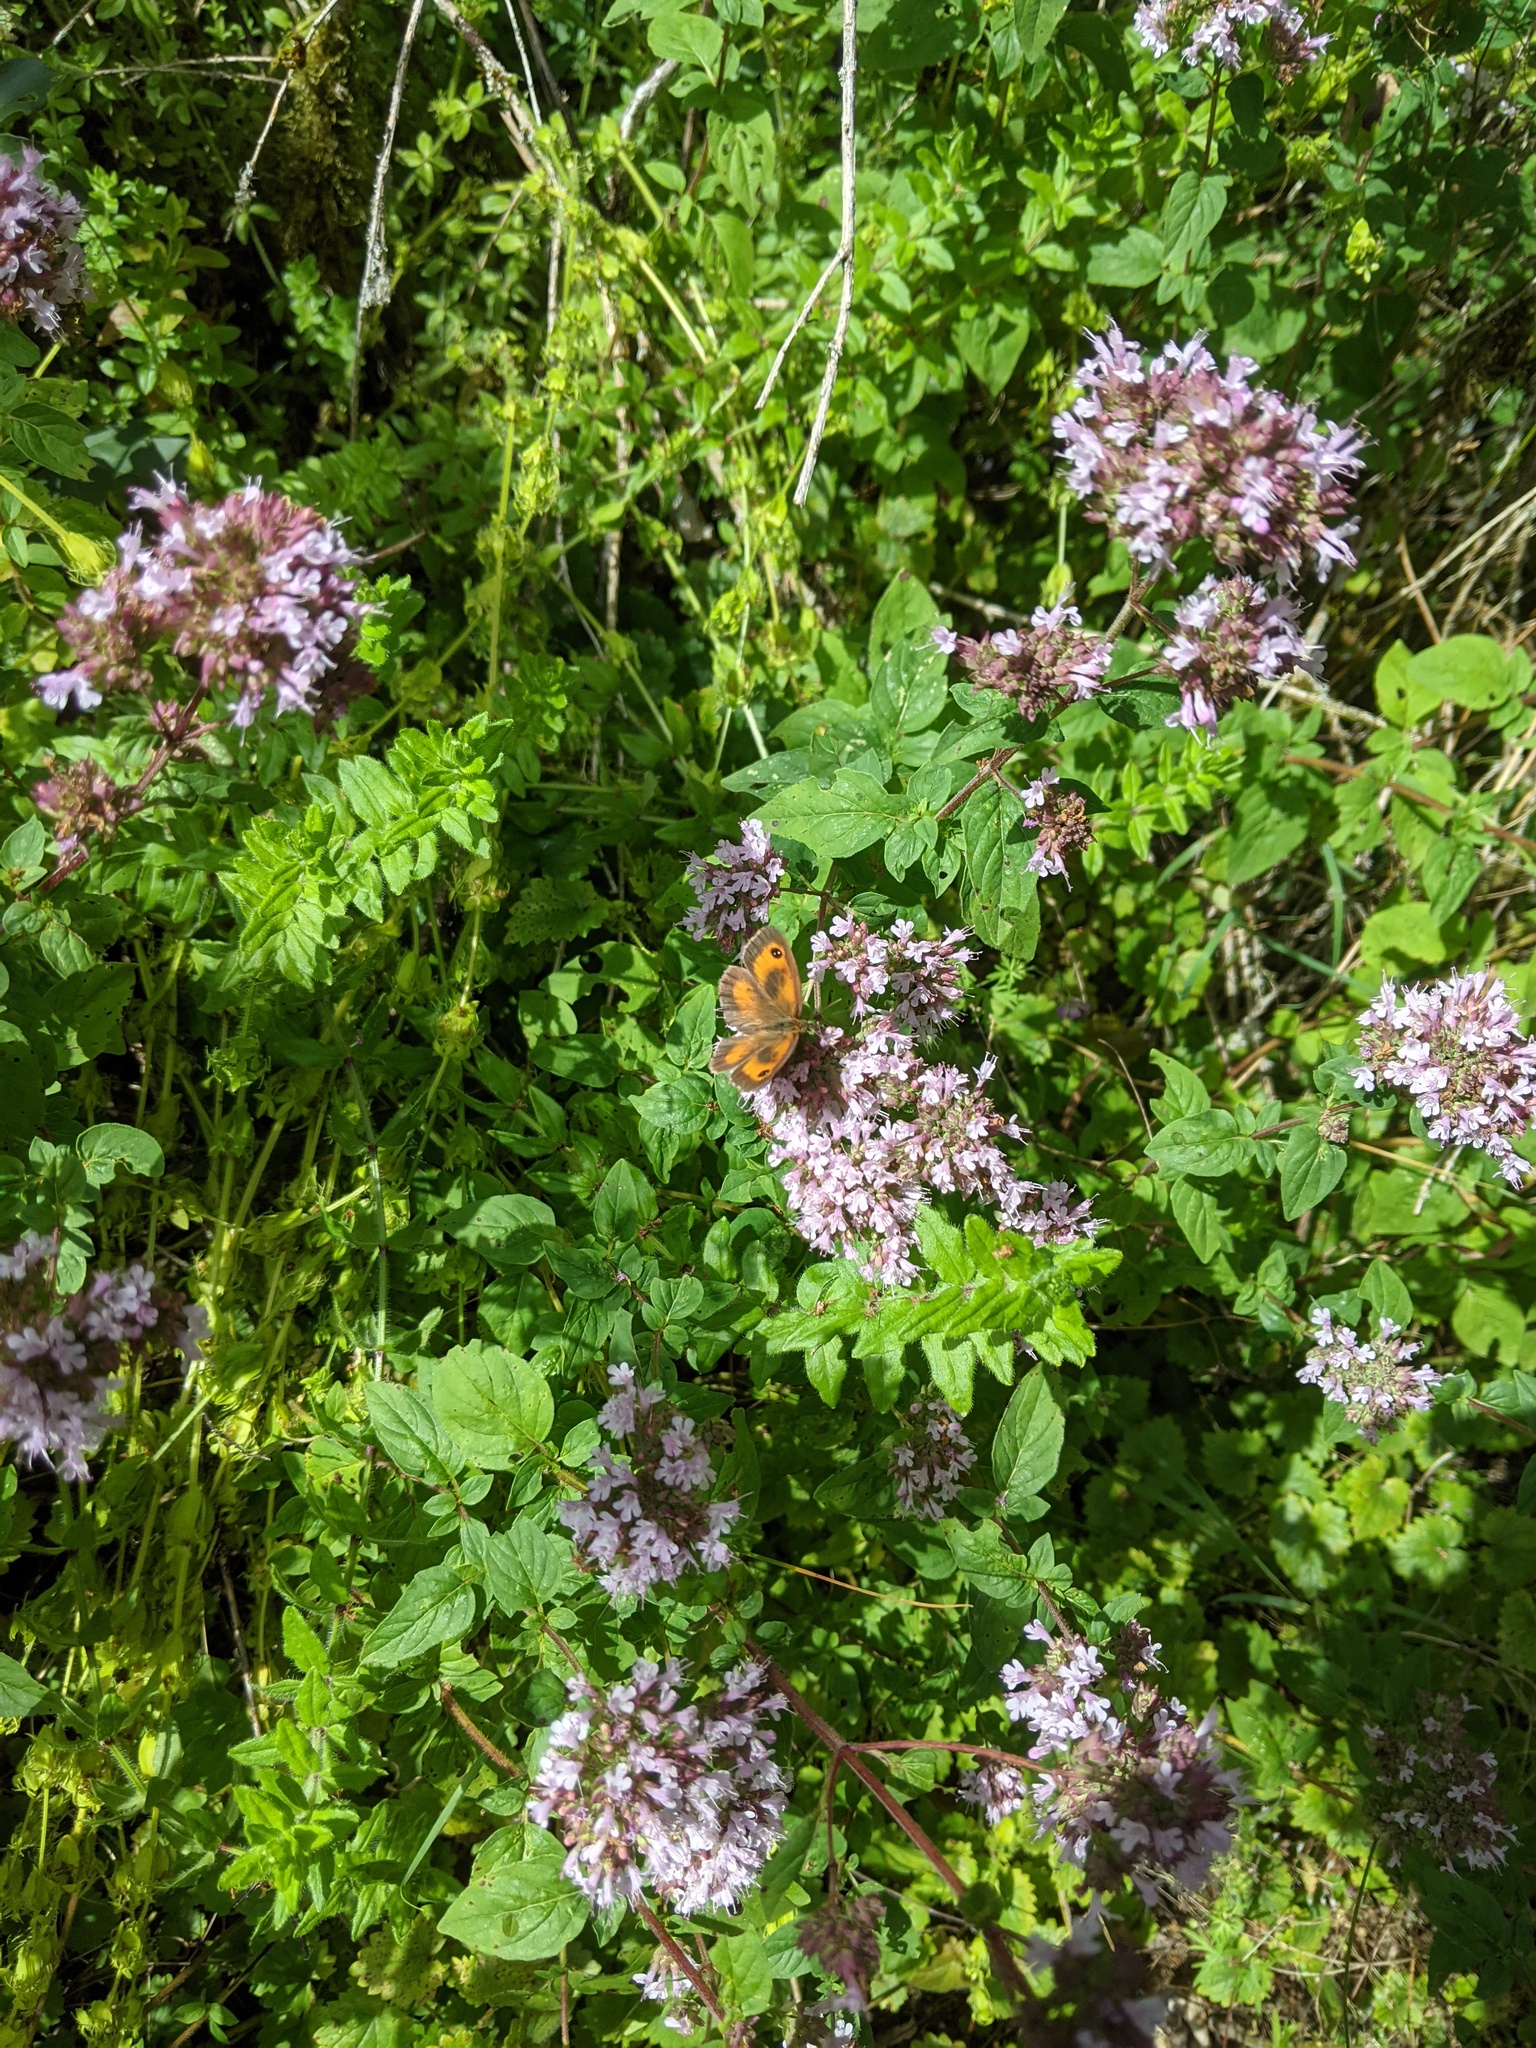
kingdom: Animalia
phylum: Arthropoda
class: Insecta
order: Lepidoptera
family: Nymphalidae
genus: Pyronia
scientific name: Pyronia tithonus
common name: Gatekeeper
